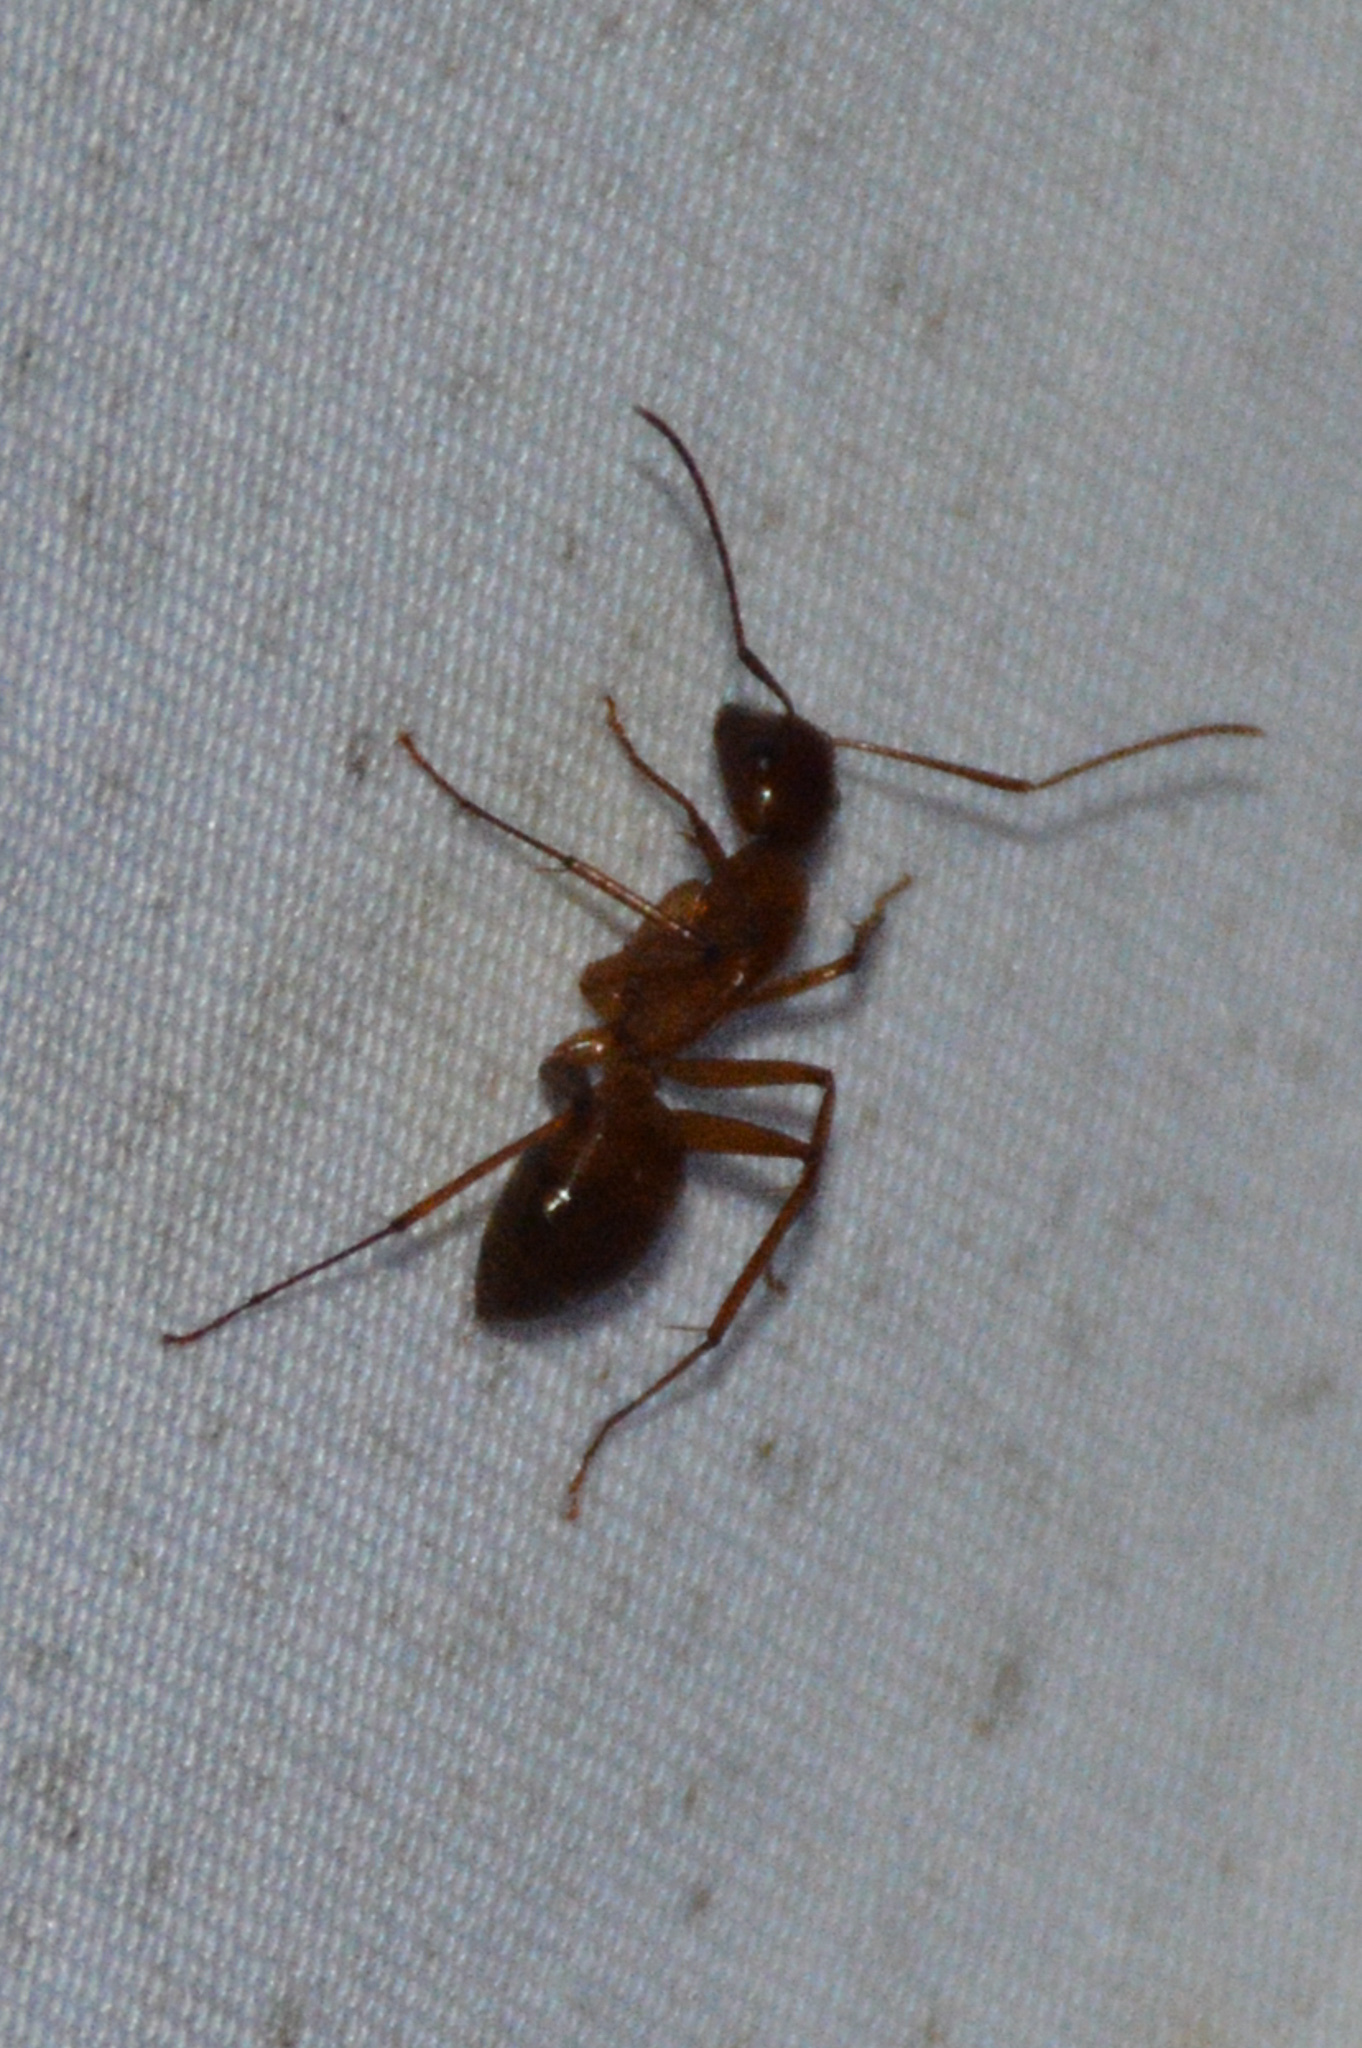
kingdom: Animalia
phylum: Arthropoda
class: Insecta
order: Hymenoptera
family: Formicidae
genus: Camponotus
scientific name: Camponotus castaneus
